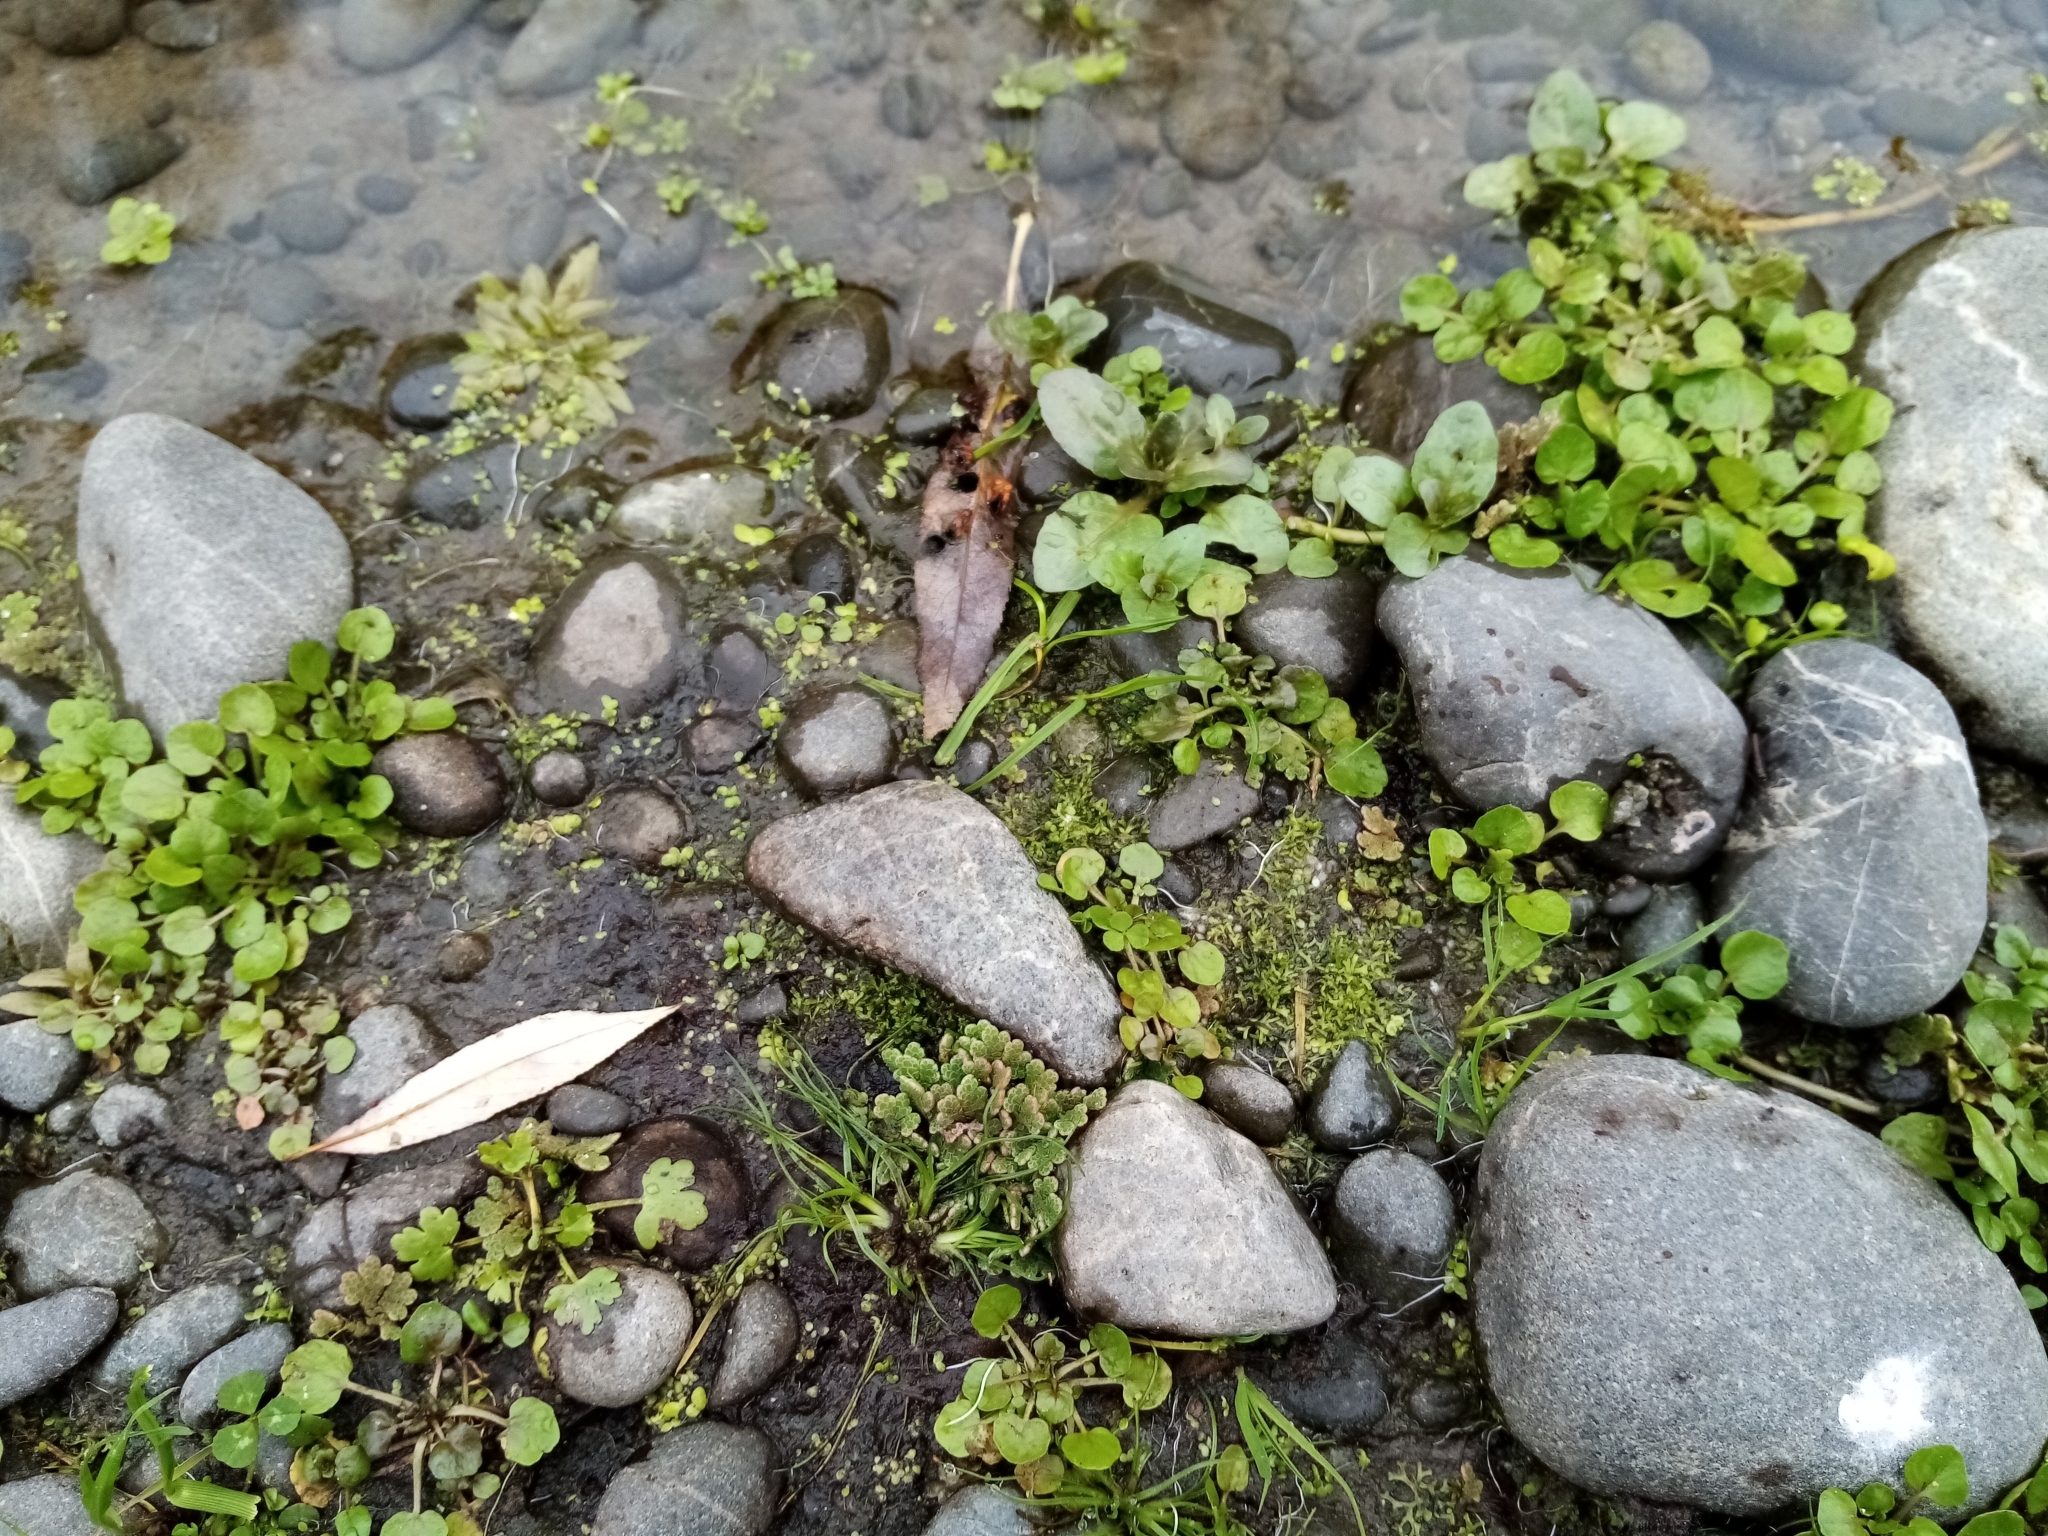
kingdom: Plantae
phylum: Tracheophyta
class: Polypodiopsida
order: Salviniales
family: Salviniaceae
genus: Azolla
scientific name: Azolla rubra
